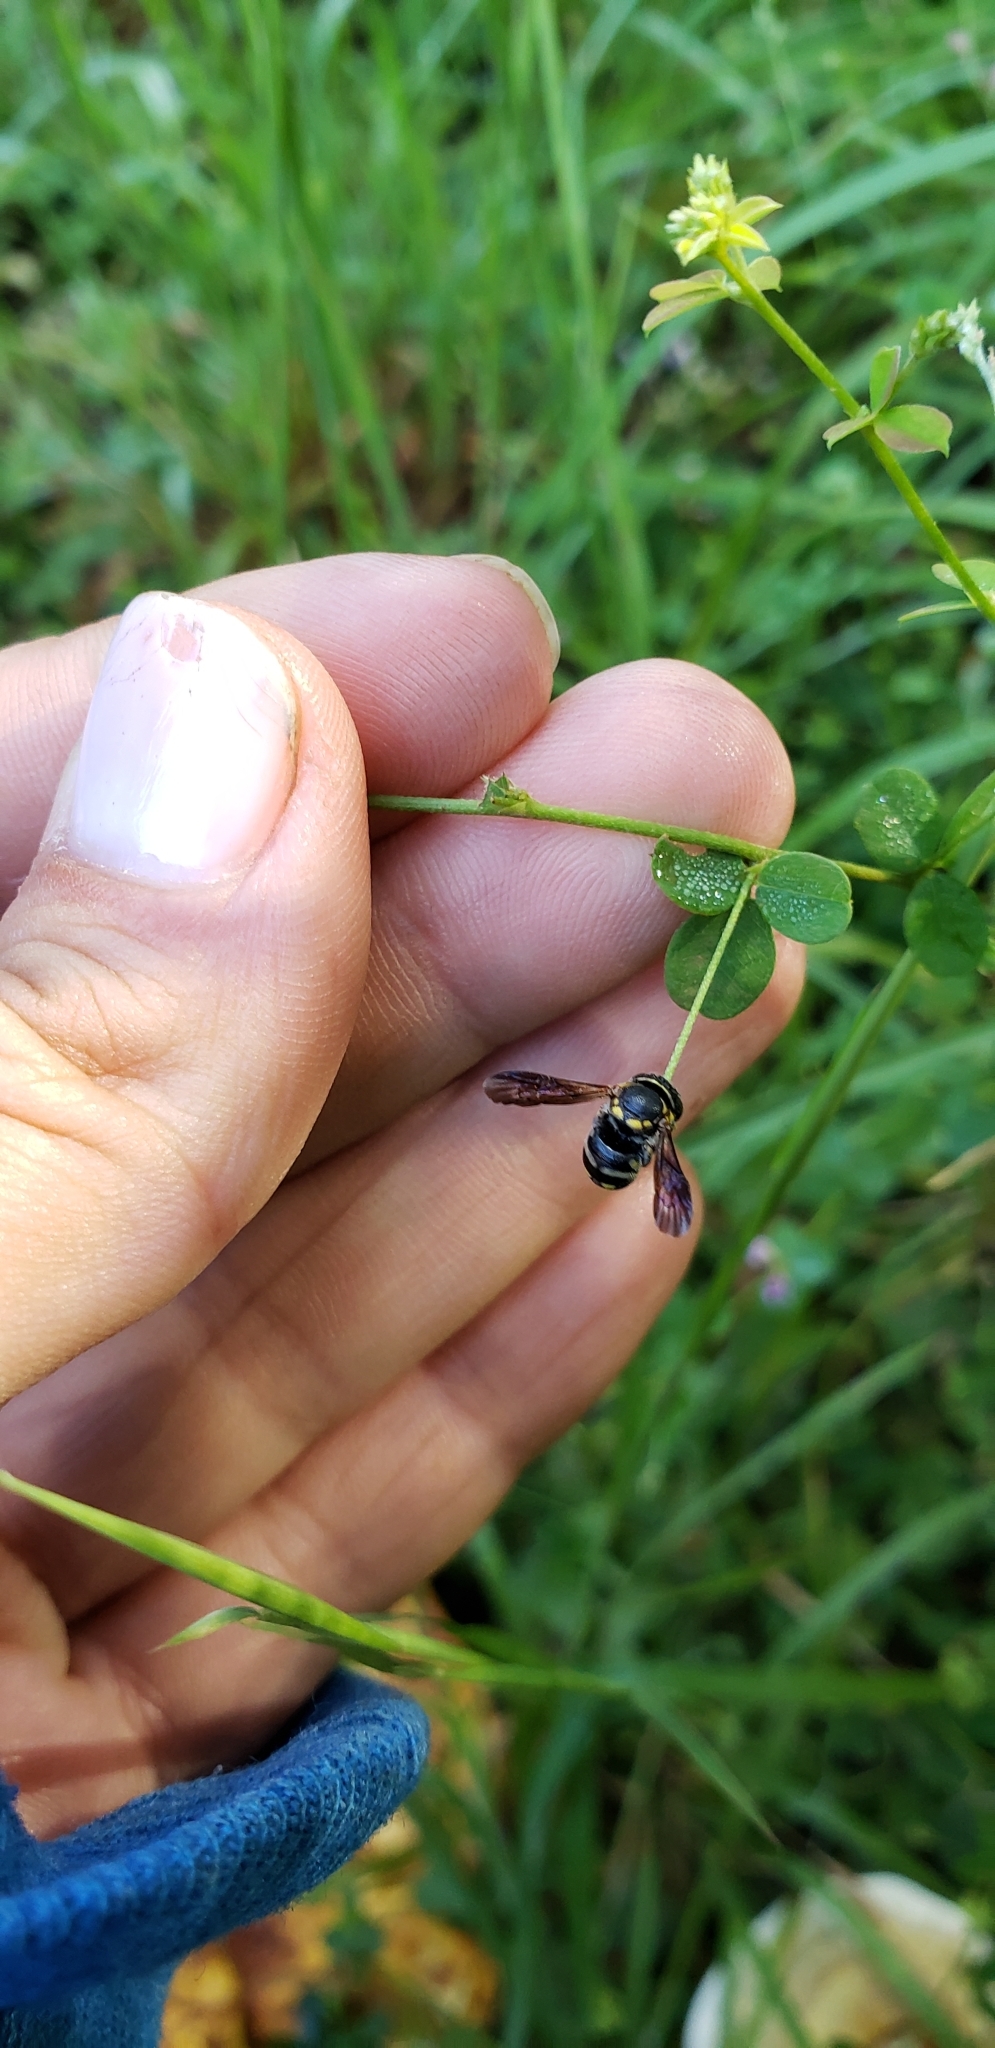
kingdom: Animalia
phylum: Arthropoda
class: Insecta
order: Hymenoptera
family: Megachilidae
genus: Anthidiellum
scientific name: Anthidiellum notatum
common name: Northern rotund-resin bee
